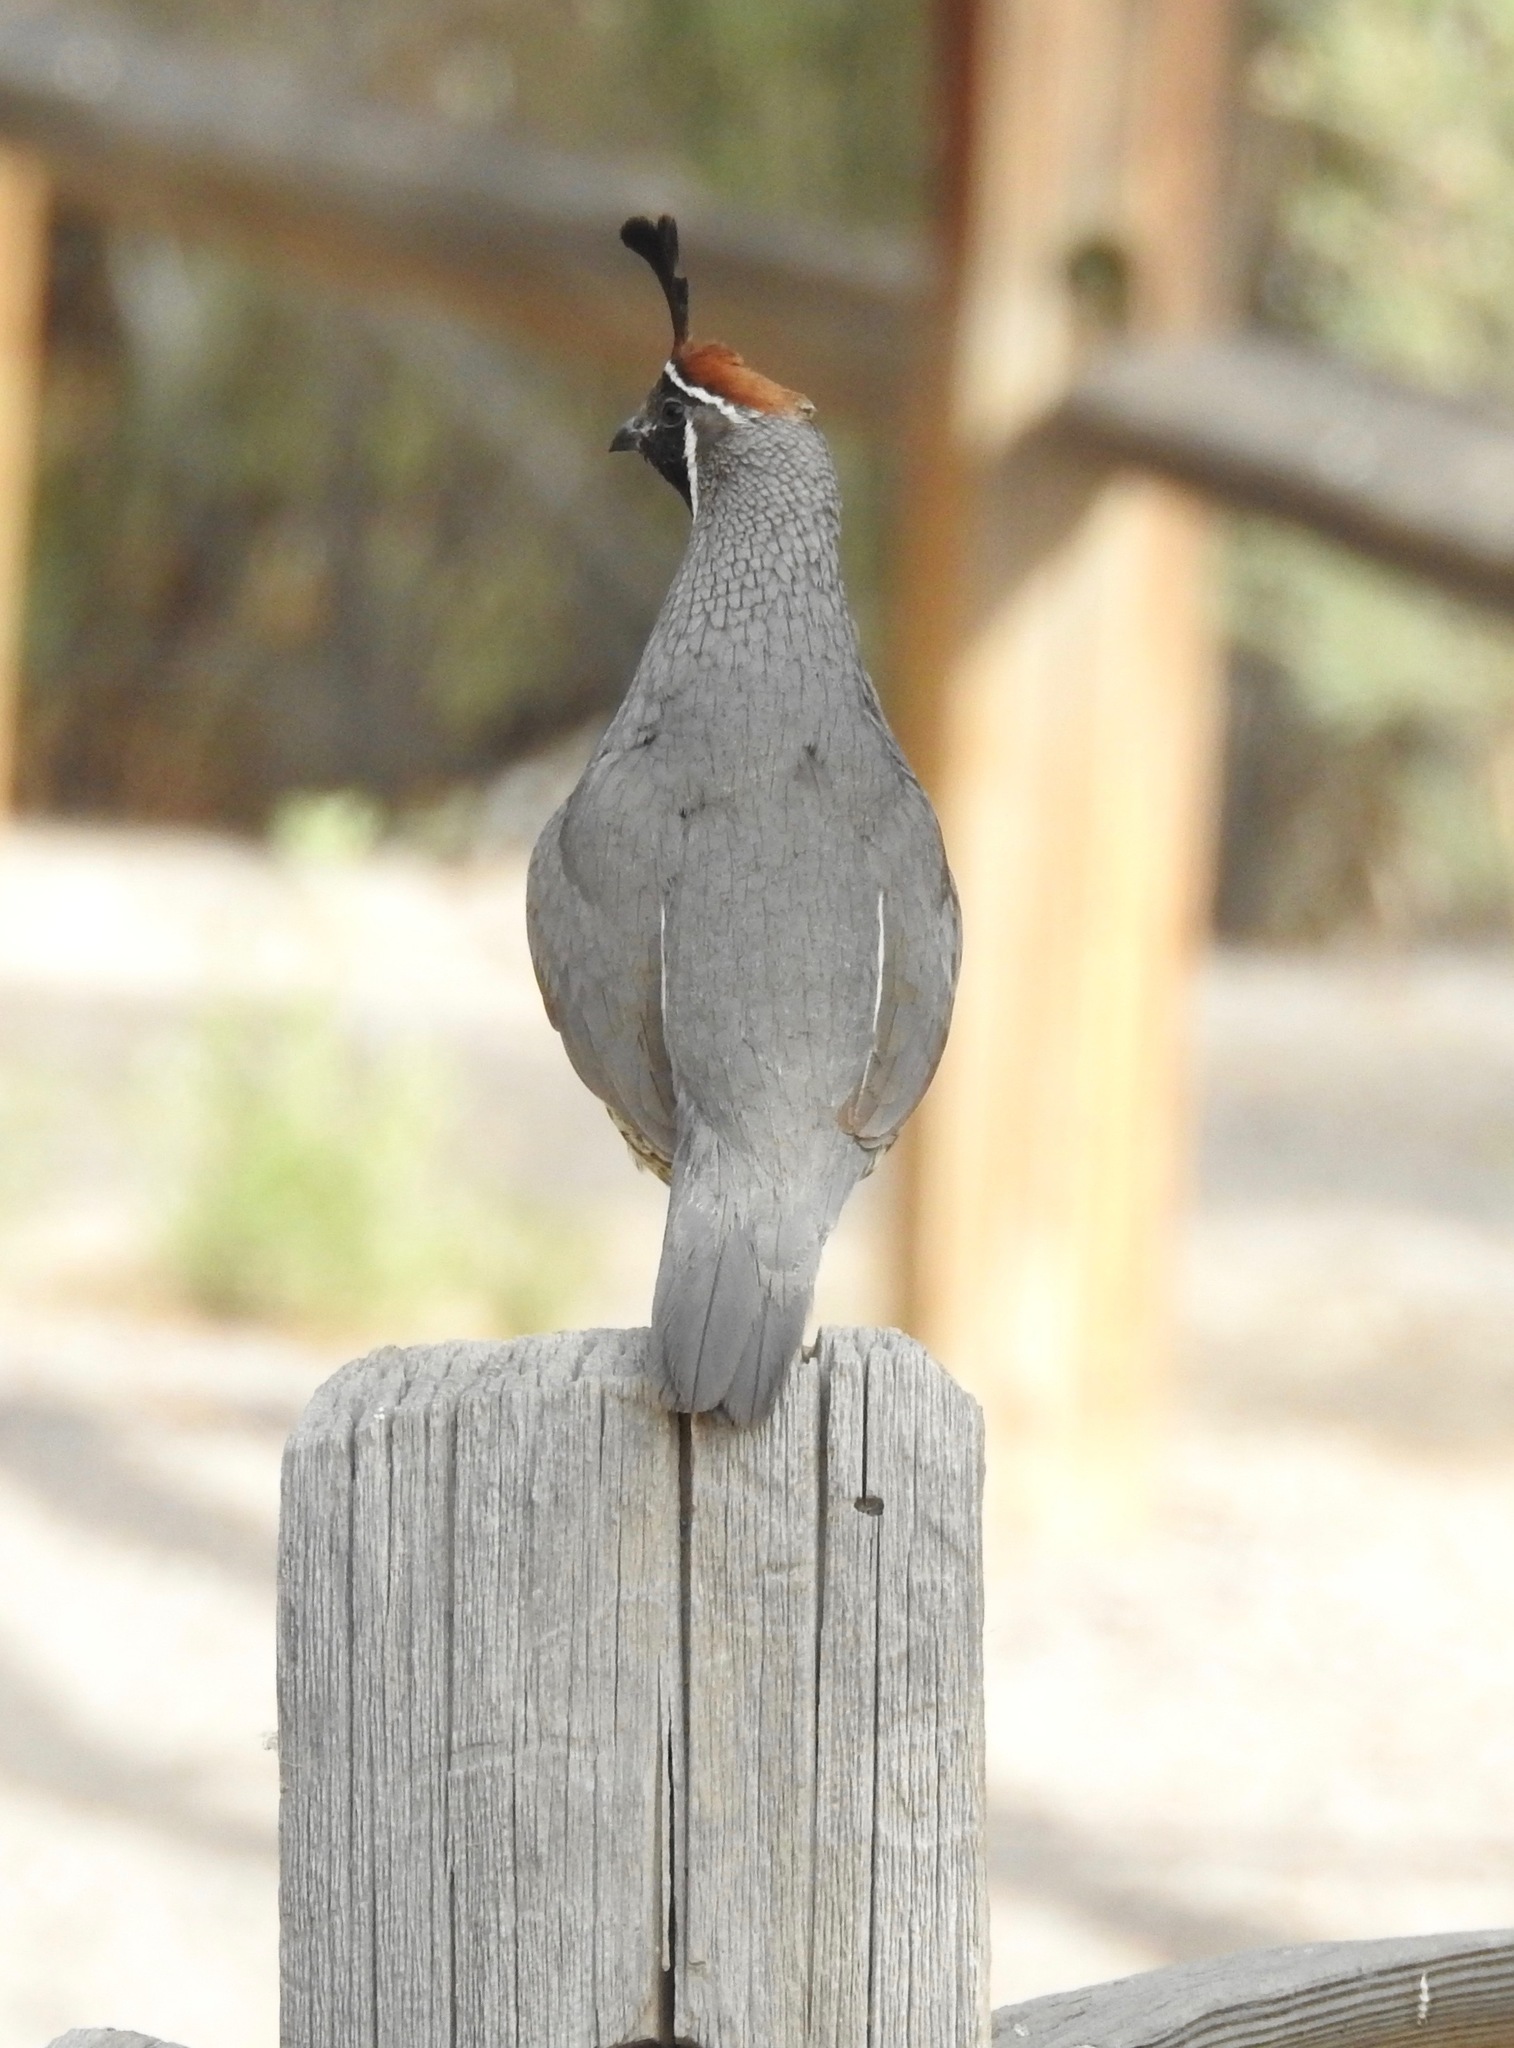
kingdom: Animalia
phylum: Chordata
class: Aves
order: Galliformes
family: Odontophoridae
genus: Callipepla
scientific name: Callipepla gambelii
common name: Gambel's quail
